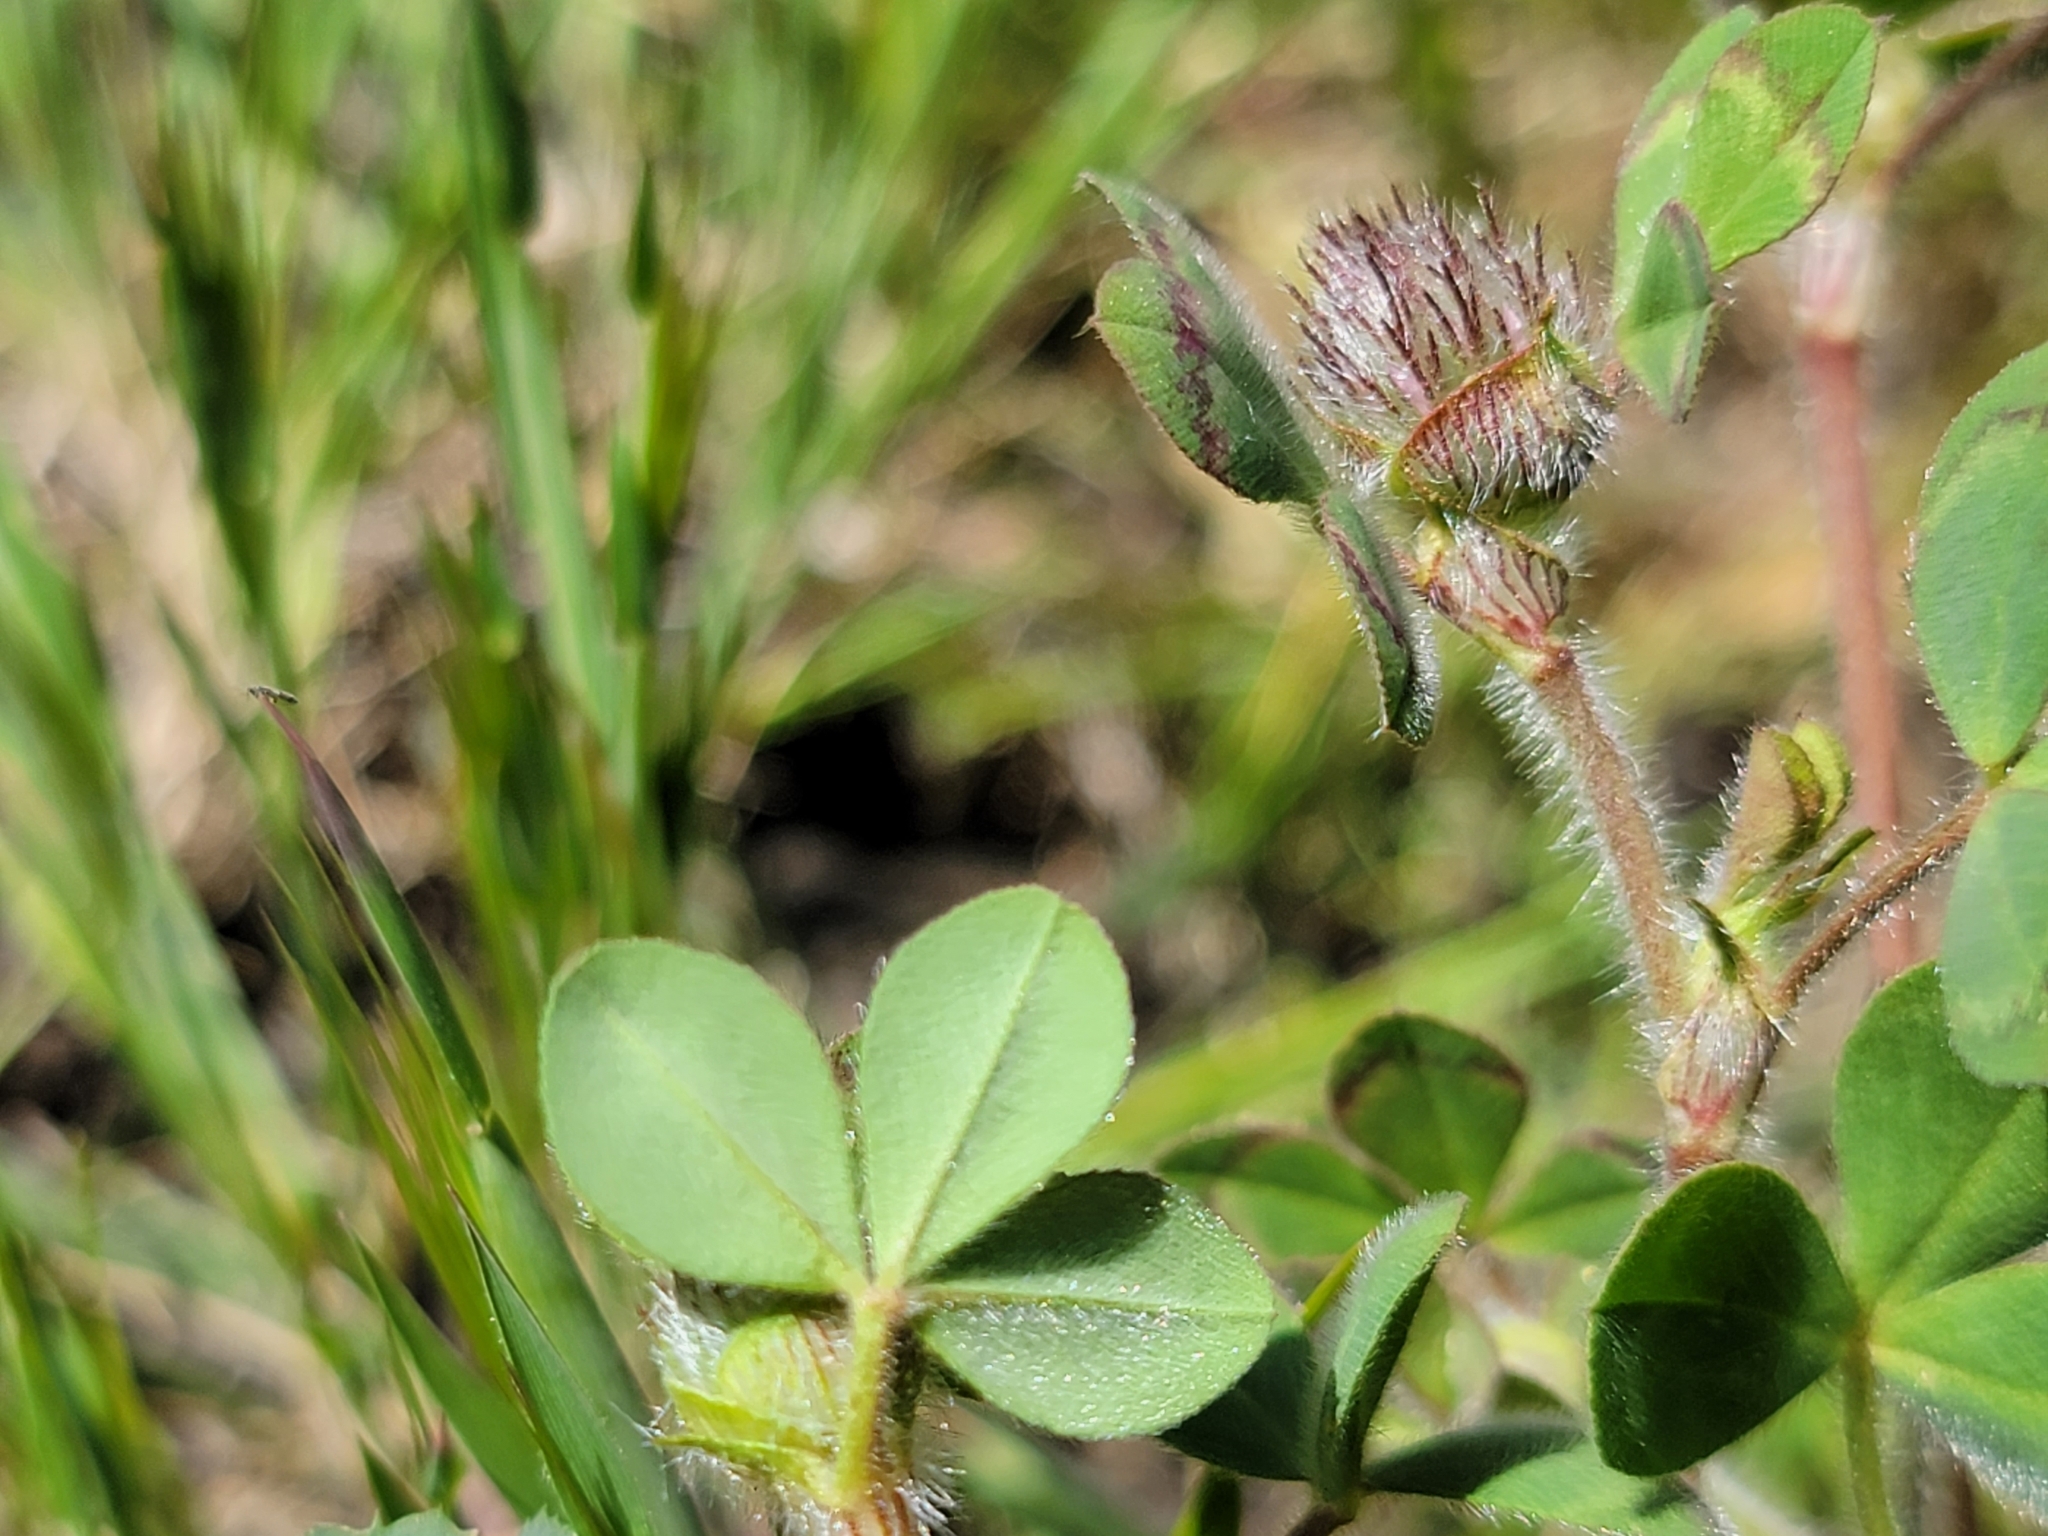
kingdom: Plantae
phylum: Tracheophyta
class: Magnoliopsida
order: Fabales
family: Fabaceae
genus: Trifolium
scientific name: Trifolium hirtum
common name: Rose clover
